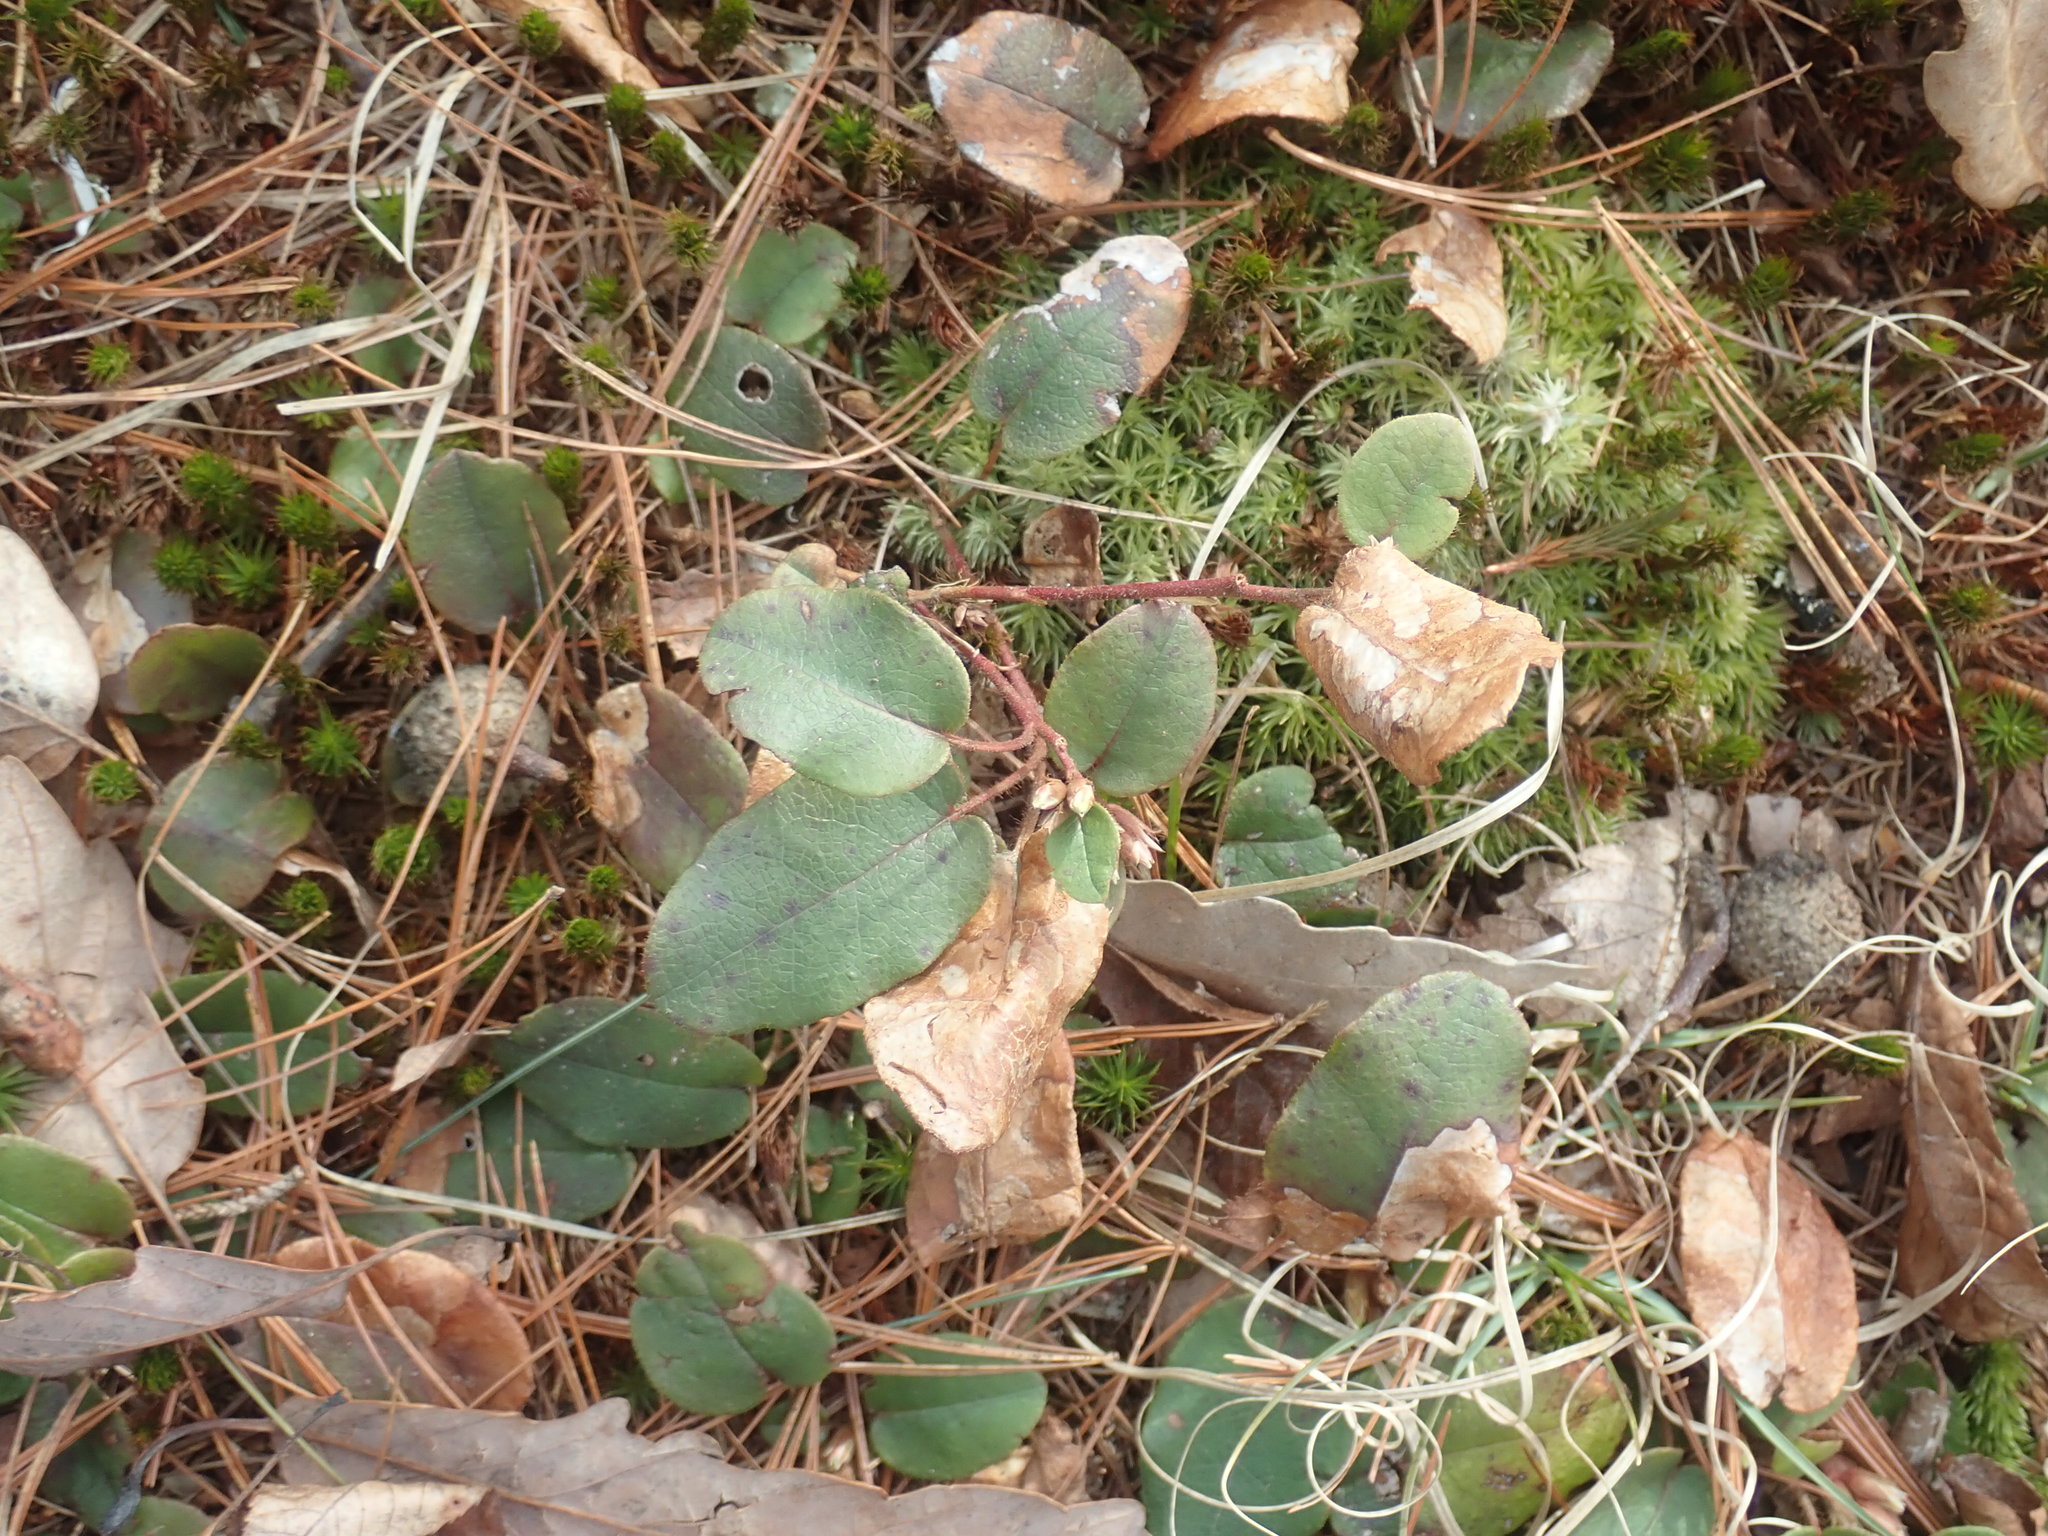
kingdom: Plantae
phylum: Tracheophyta
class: Magnoliopsida
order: Ericales
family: Ericaceae
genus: Epigaea
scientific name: Epigaea repens
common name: Gravelroot
